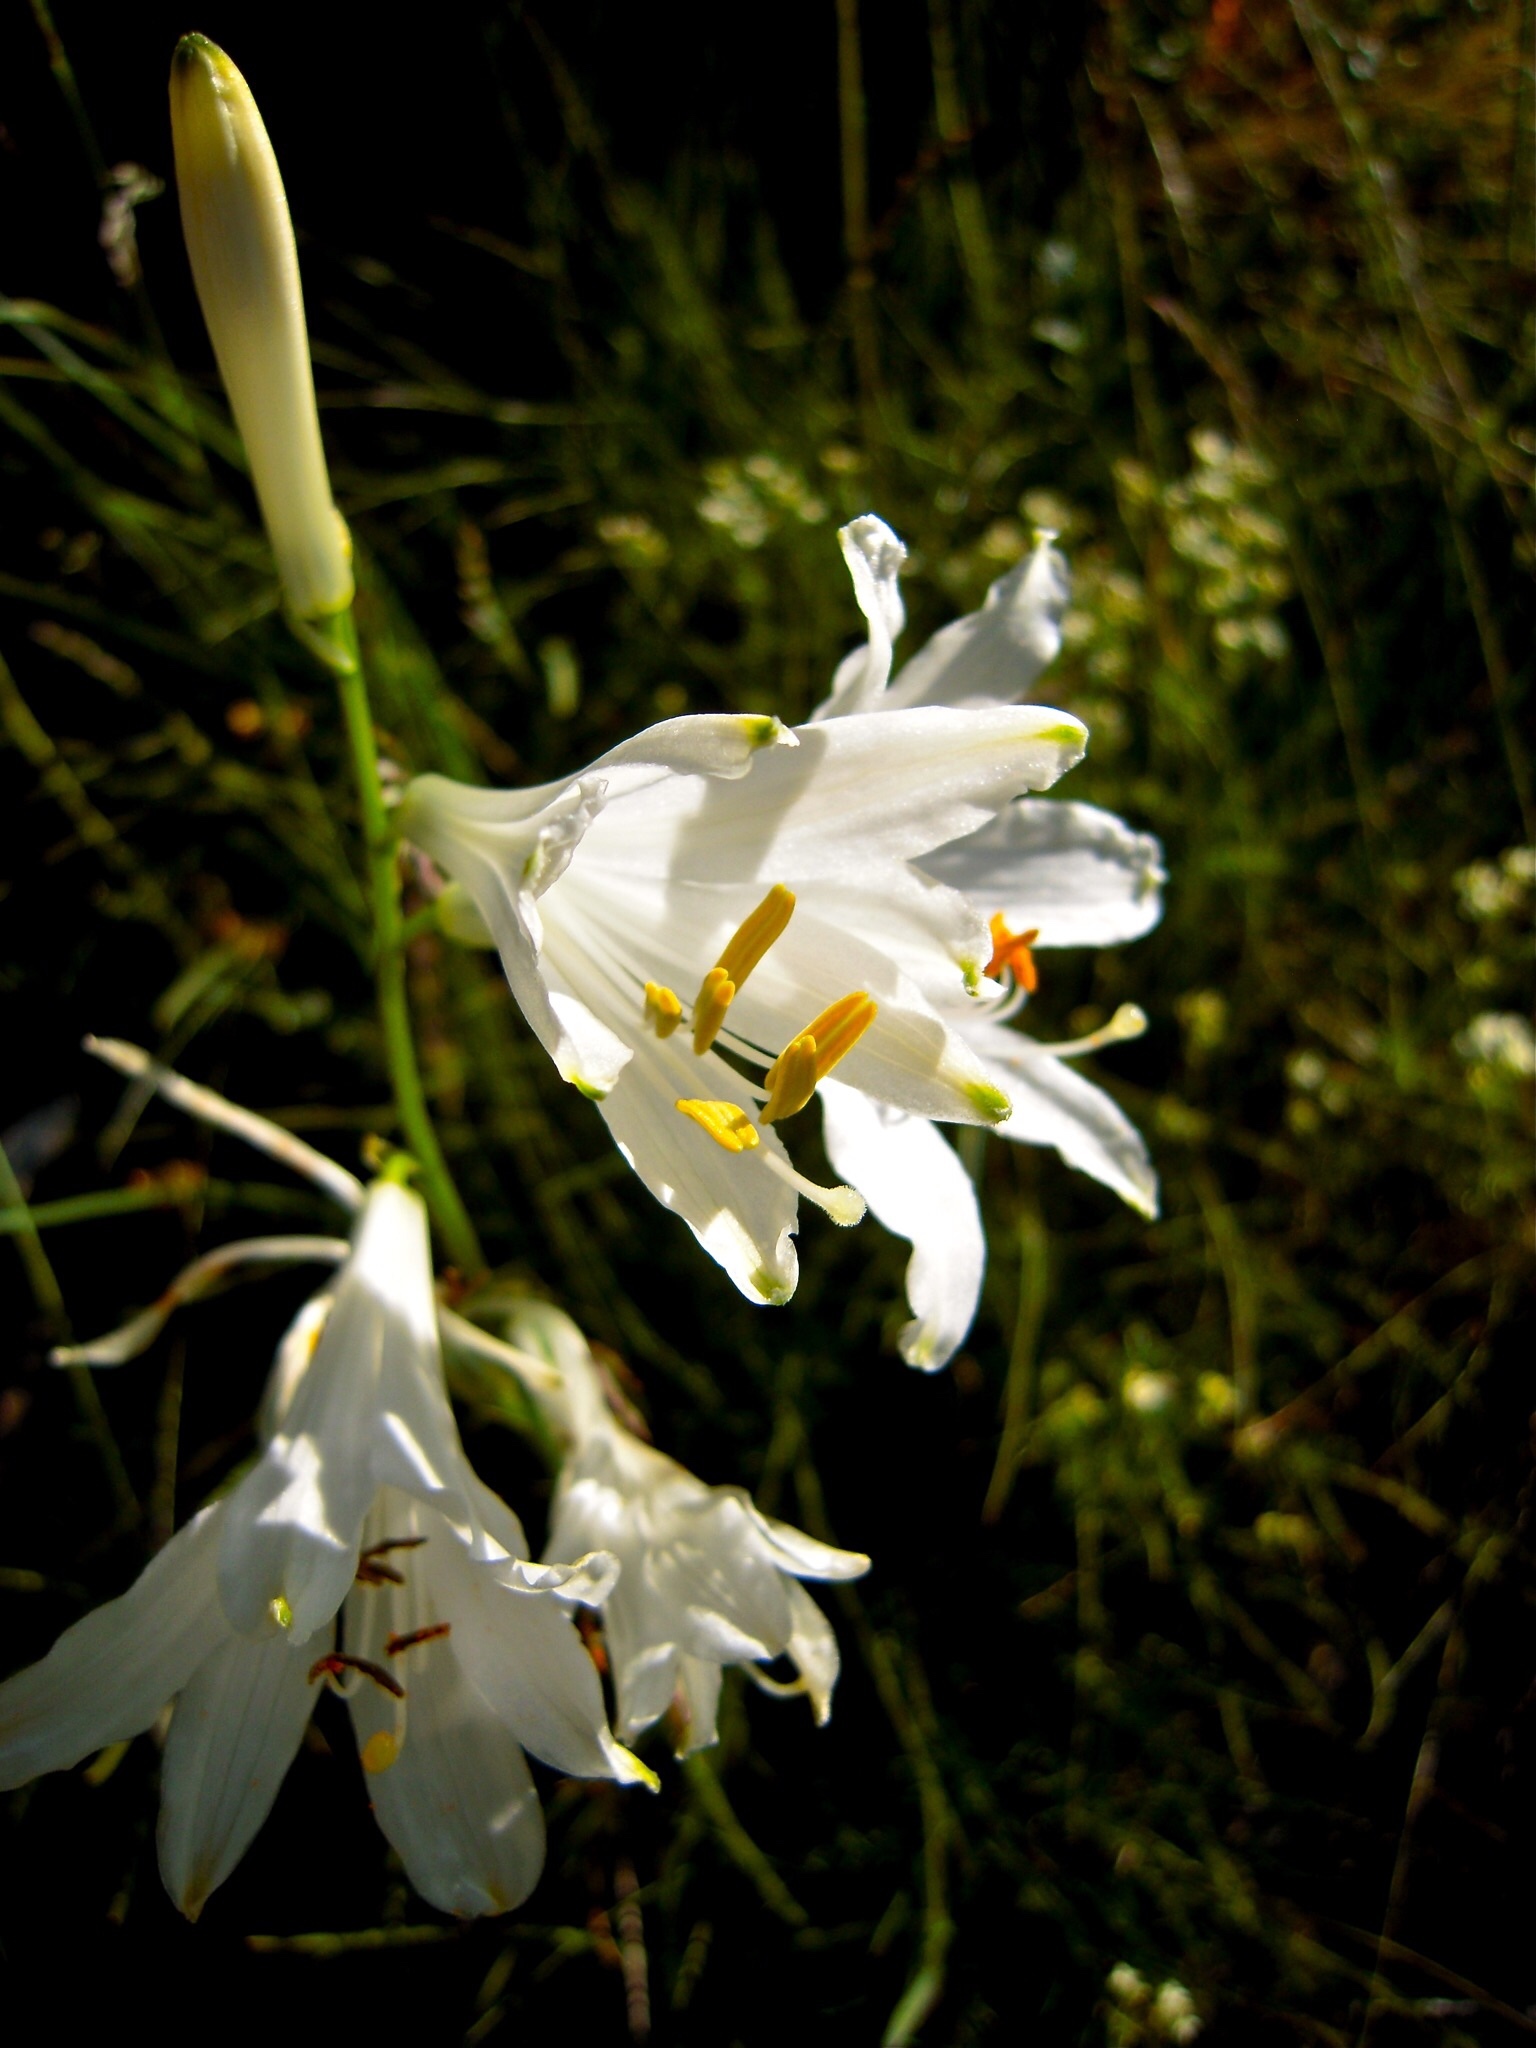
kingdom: Plantae
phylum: Tracheophyta
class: Liliopsida
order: Asparagales
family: Asparagaceae
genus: Paradisea
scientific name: Paradisea liliastrum
